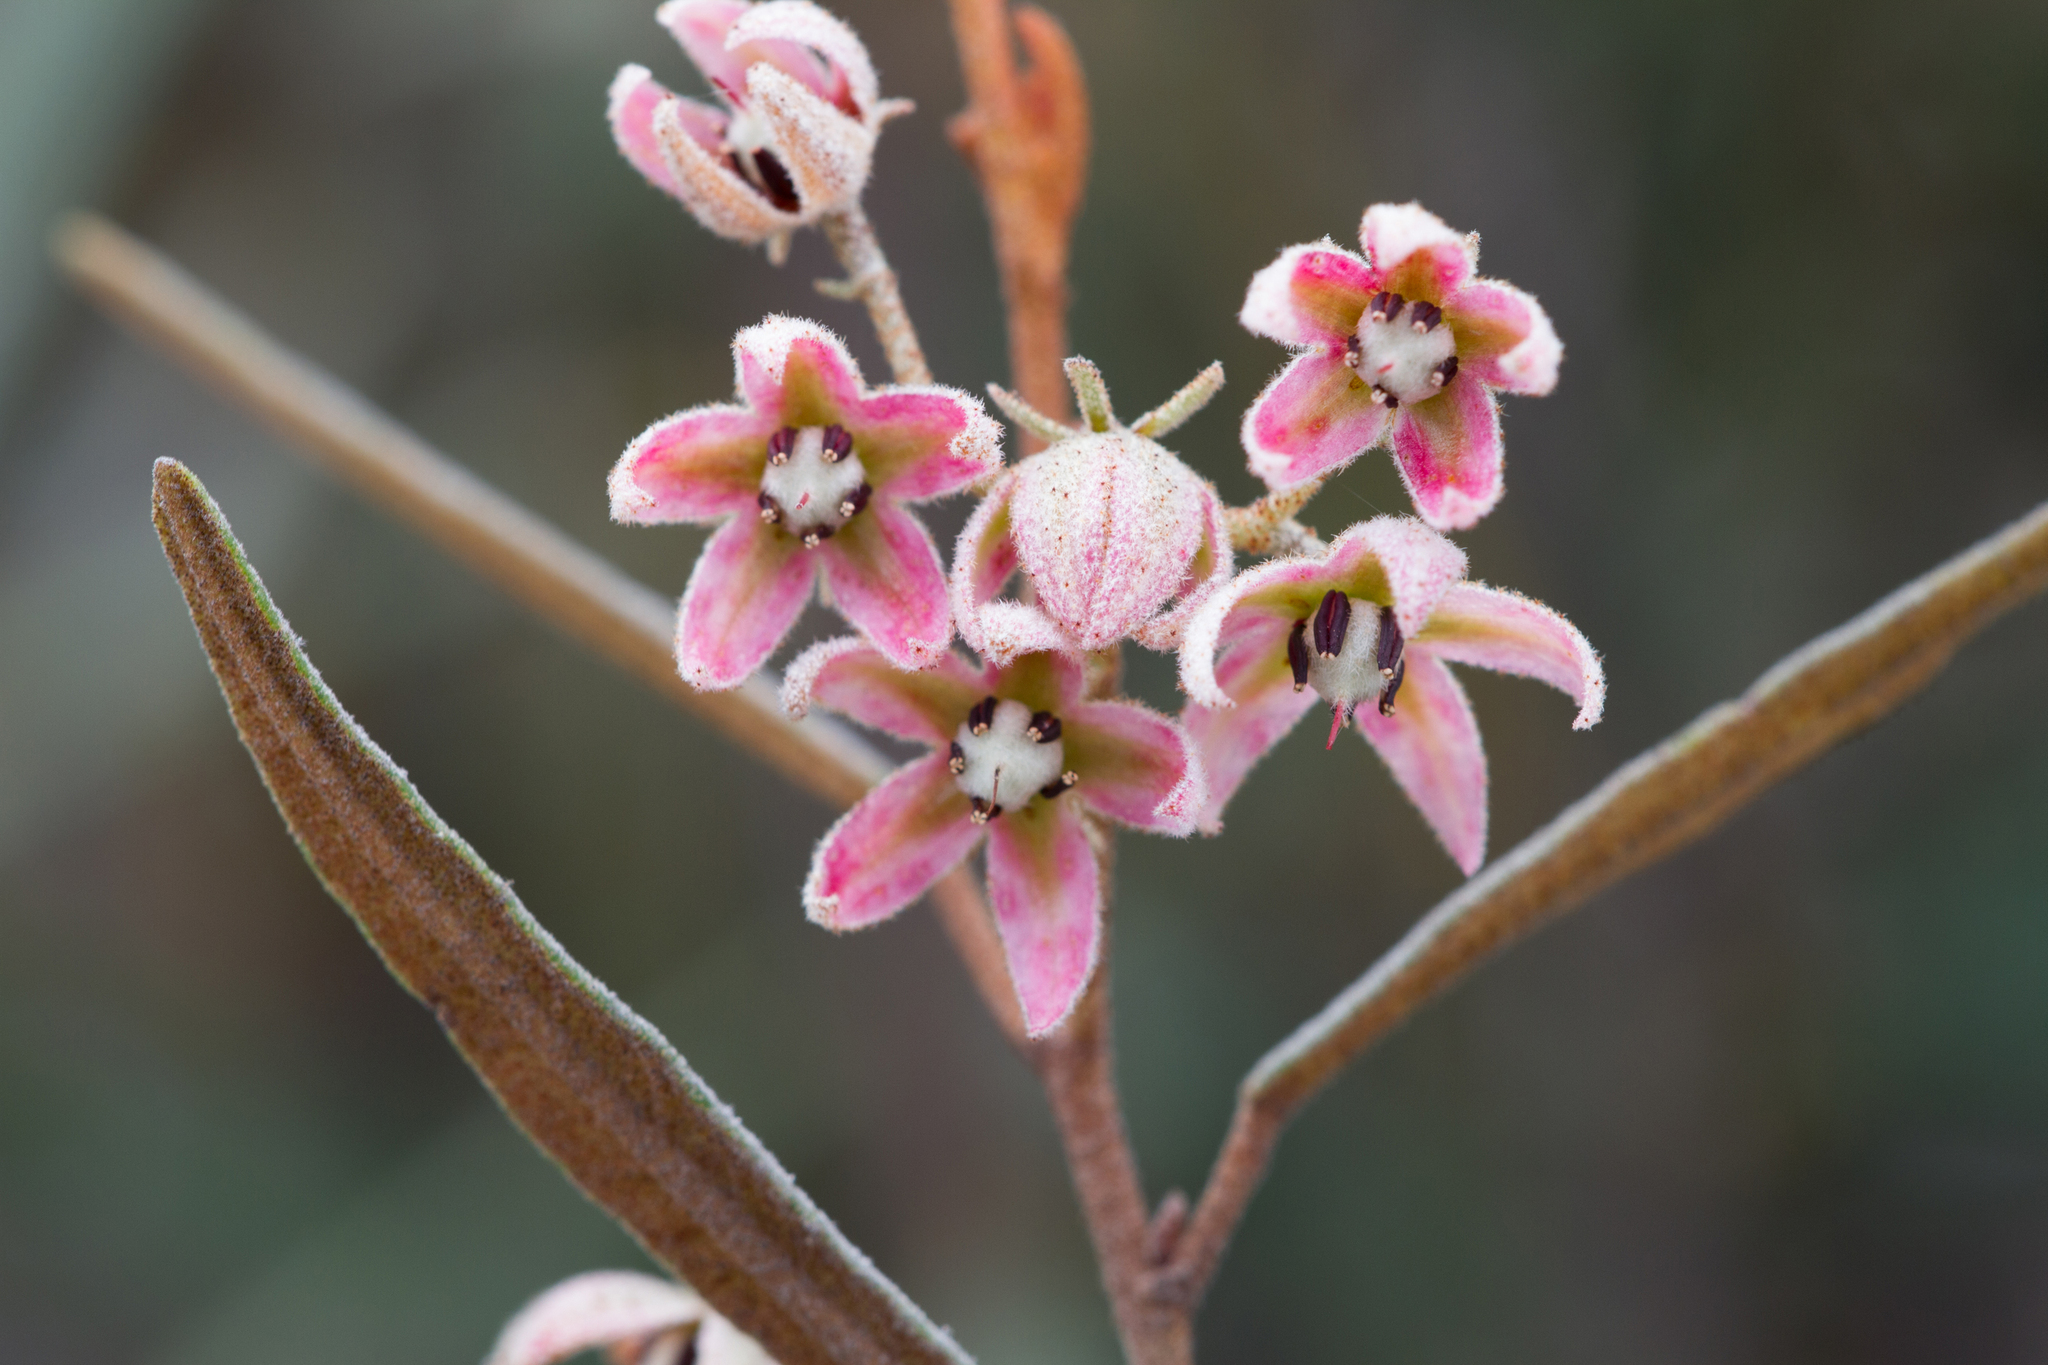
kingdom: Plantae
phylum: Tracheophyta
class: Magnoliopsida
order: Malvales
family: Malvaceae
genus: Lasiopetalum
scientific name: Lasiopetalum behrii
